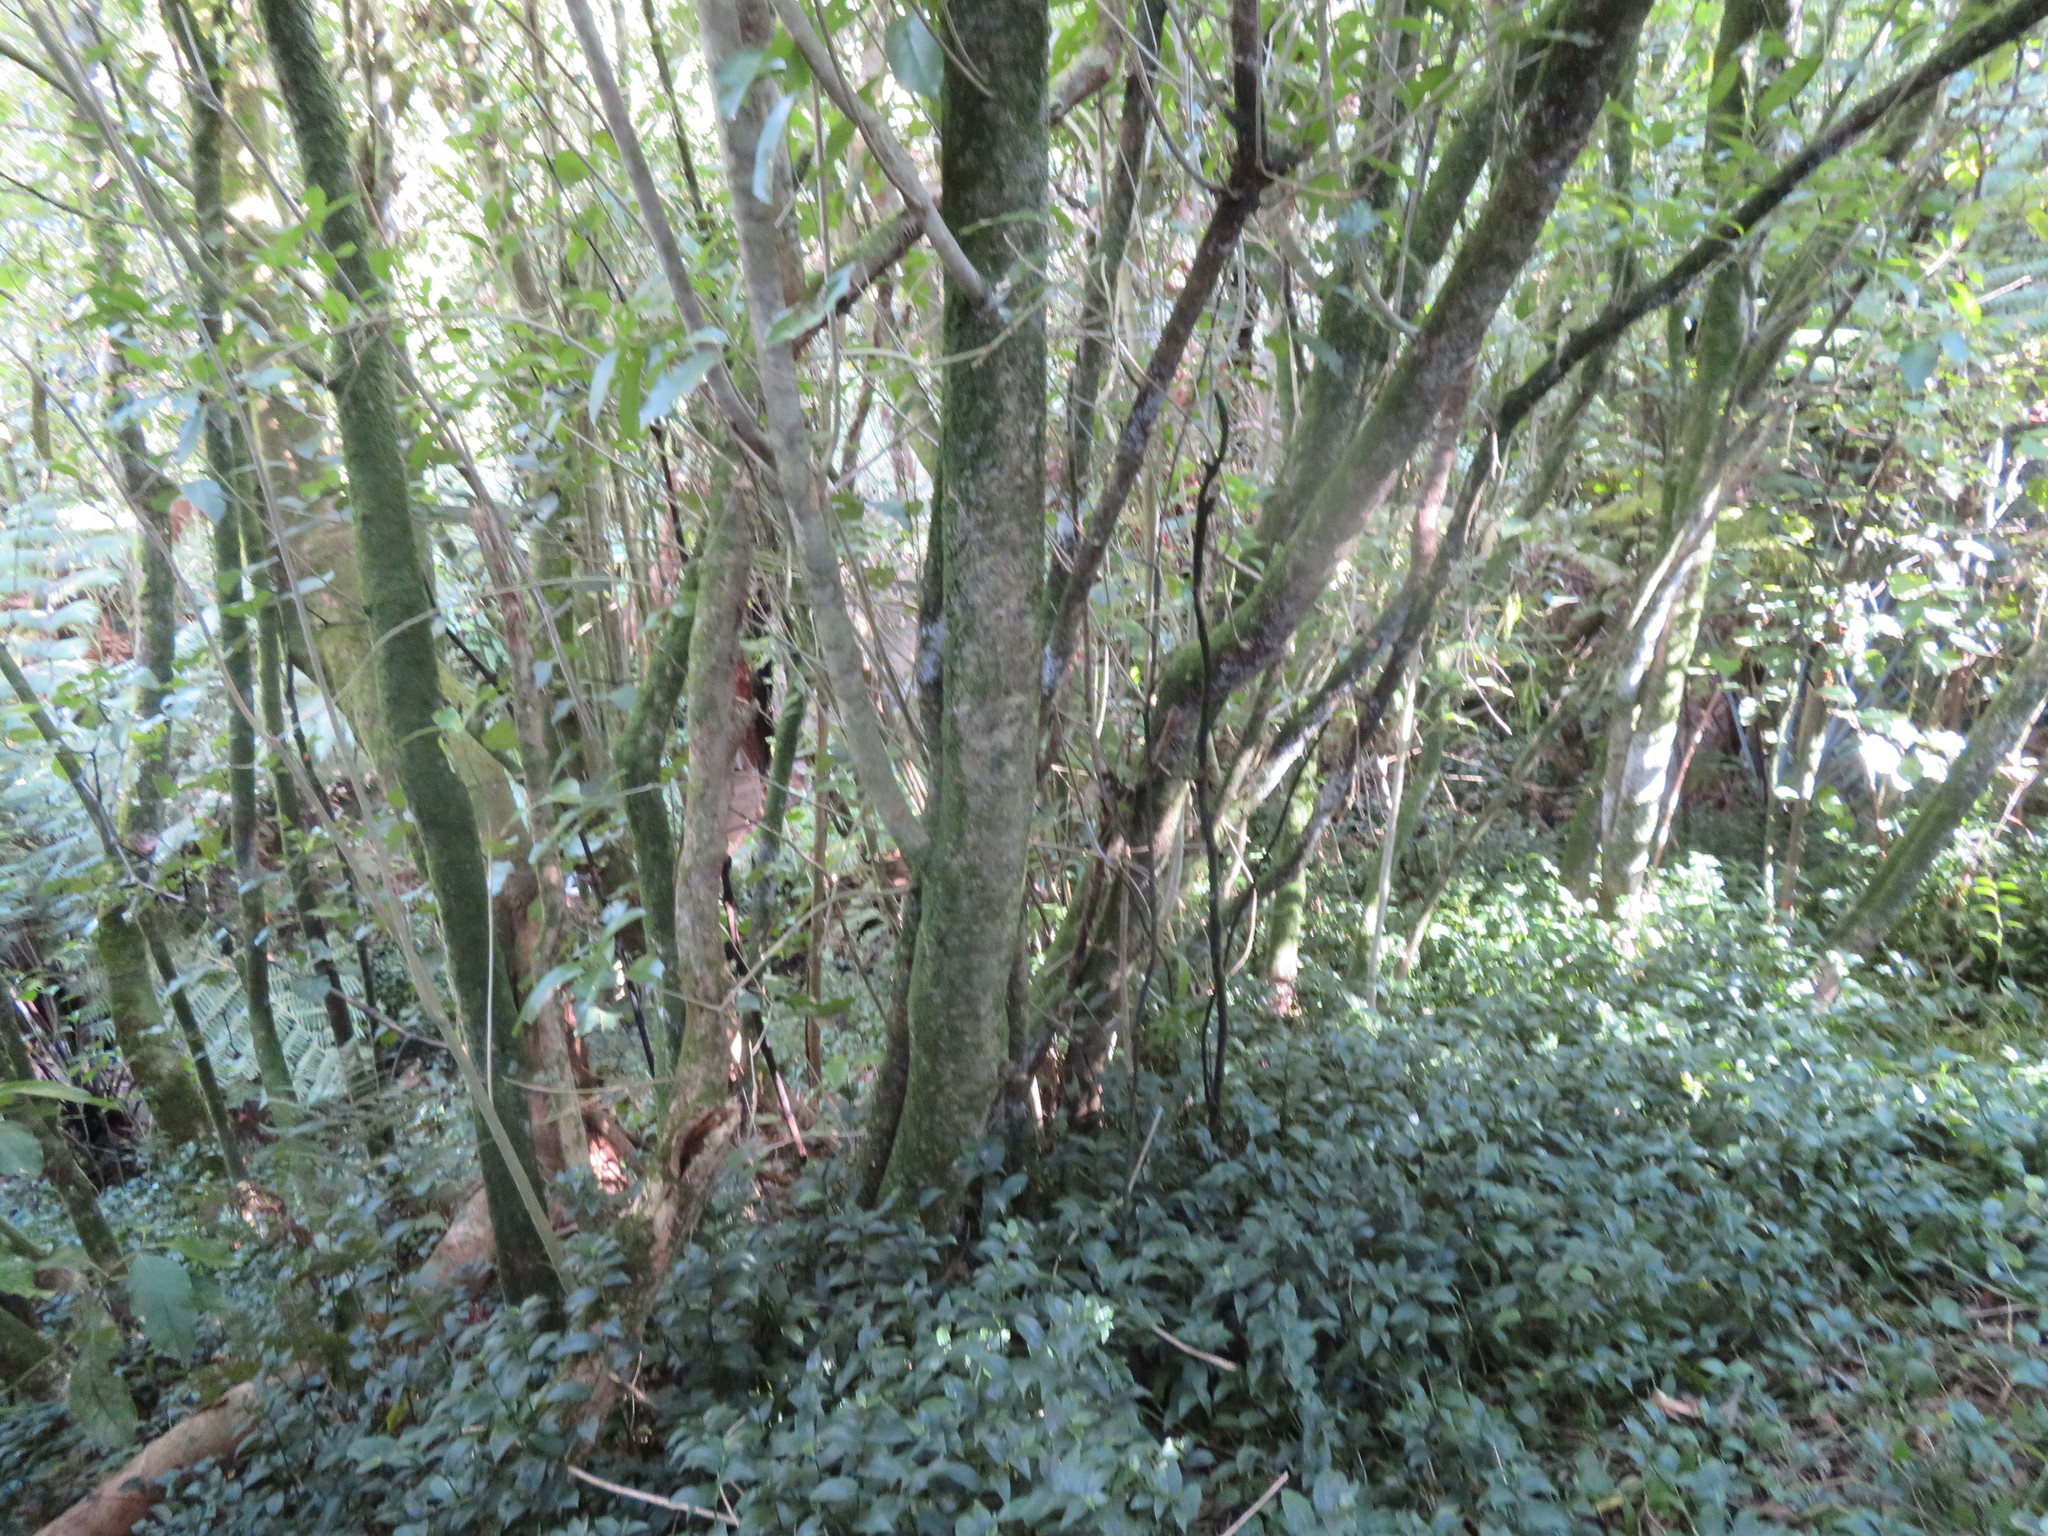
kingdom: Plantae
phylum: Tracheophyta
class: Magnoliopsida
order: Malpighiales
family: Violaceae
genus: Melicytus
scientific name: Melicytus ramiflorus
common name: Mahoe
